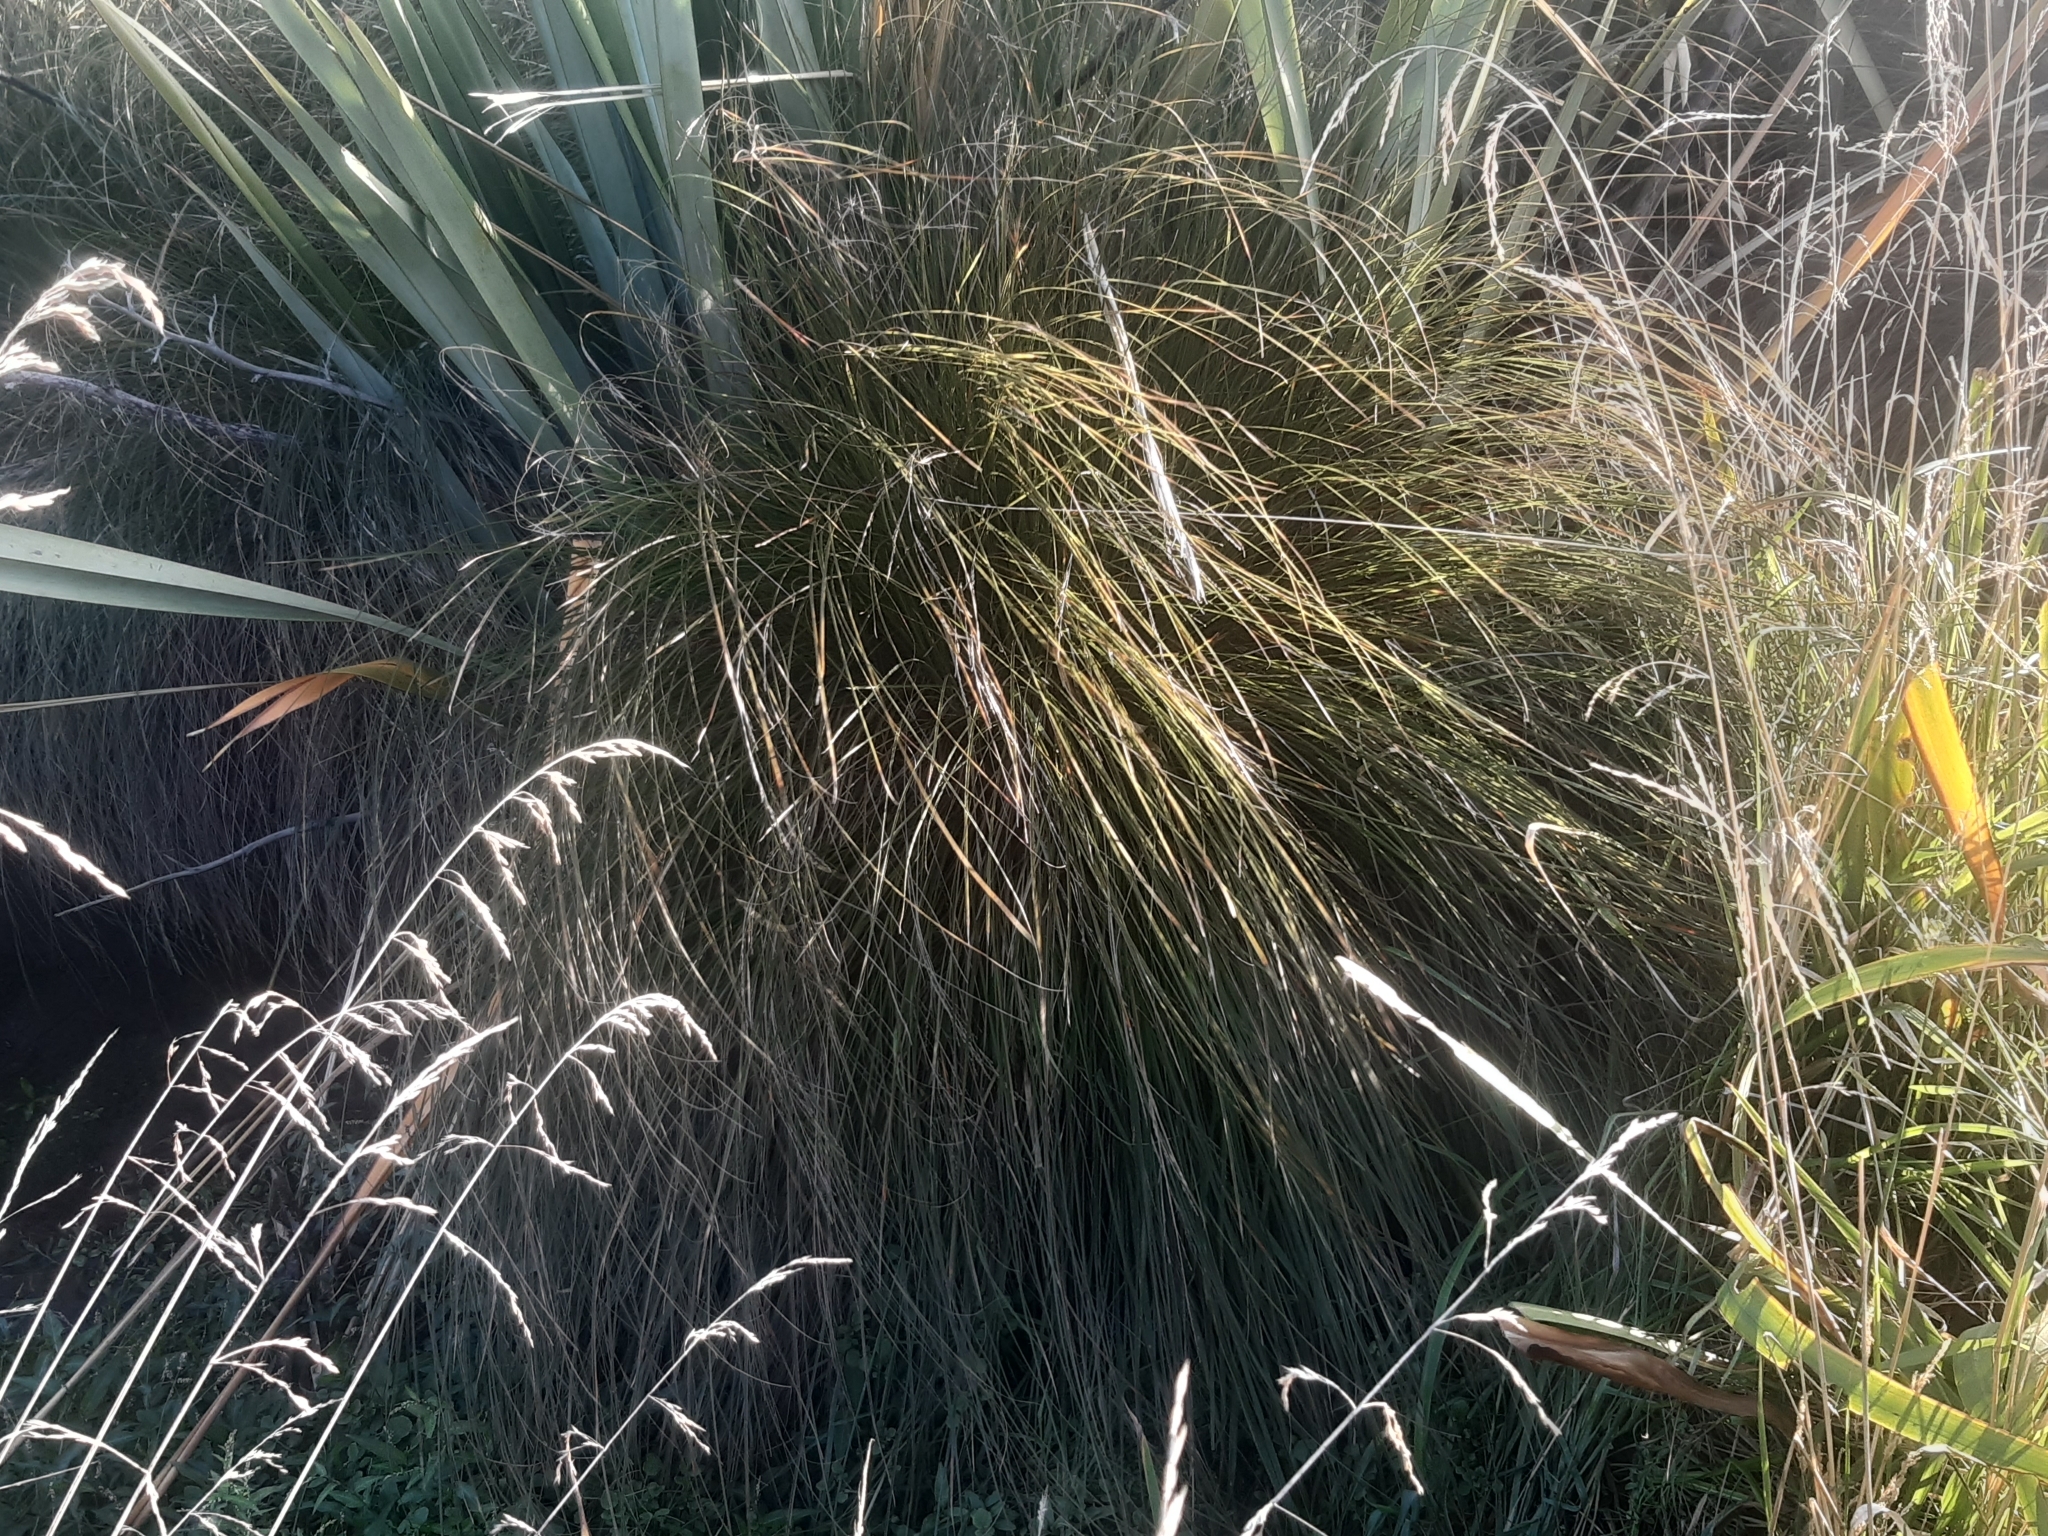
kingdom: Plantae
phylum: Tracheophyta
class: Liliopsida
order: Poales
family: Cyperaceae
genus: Carex
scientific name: Carex secta
